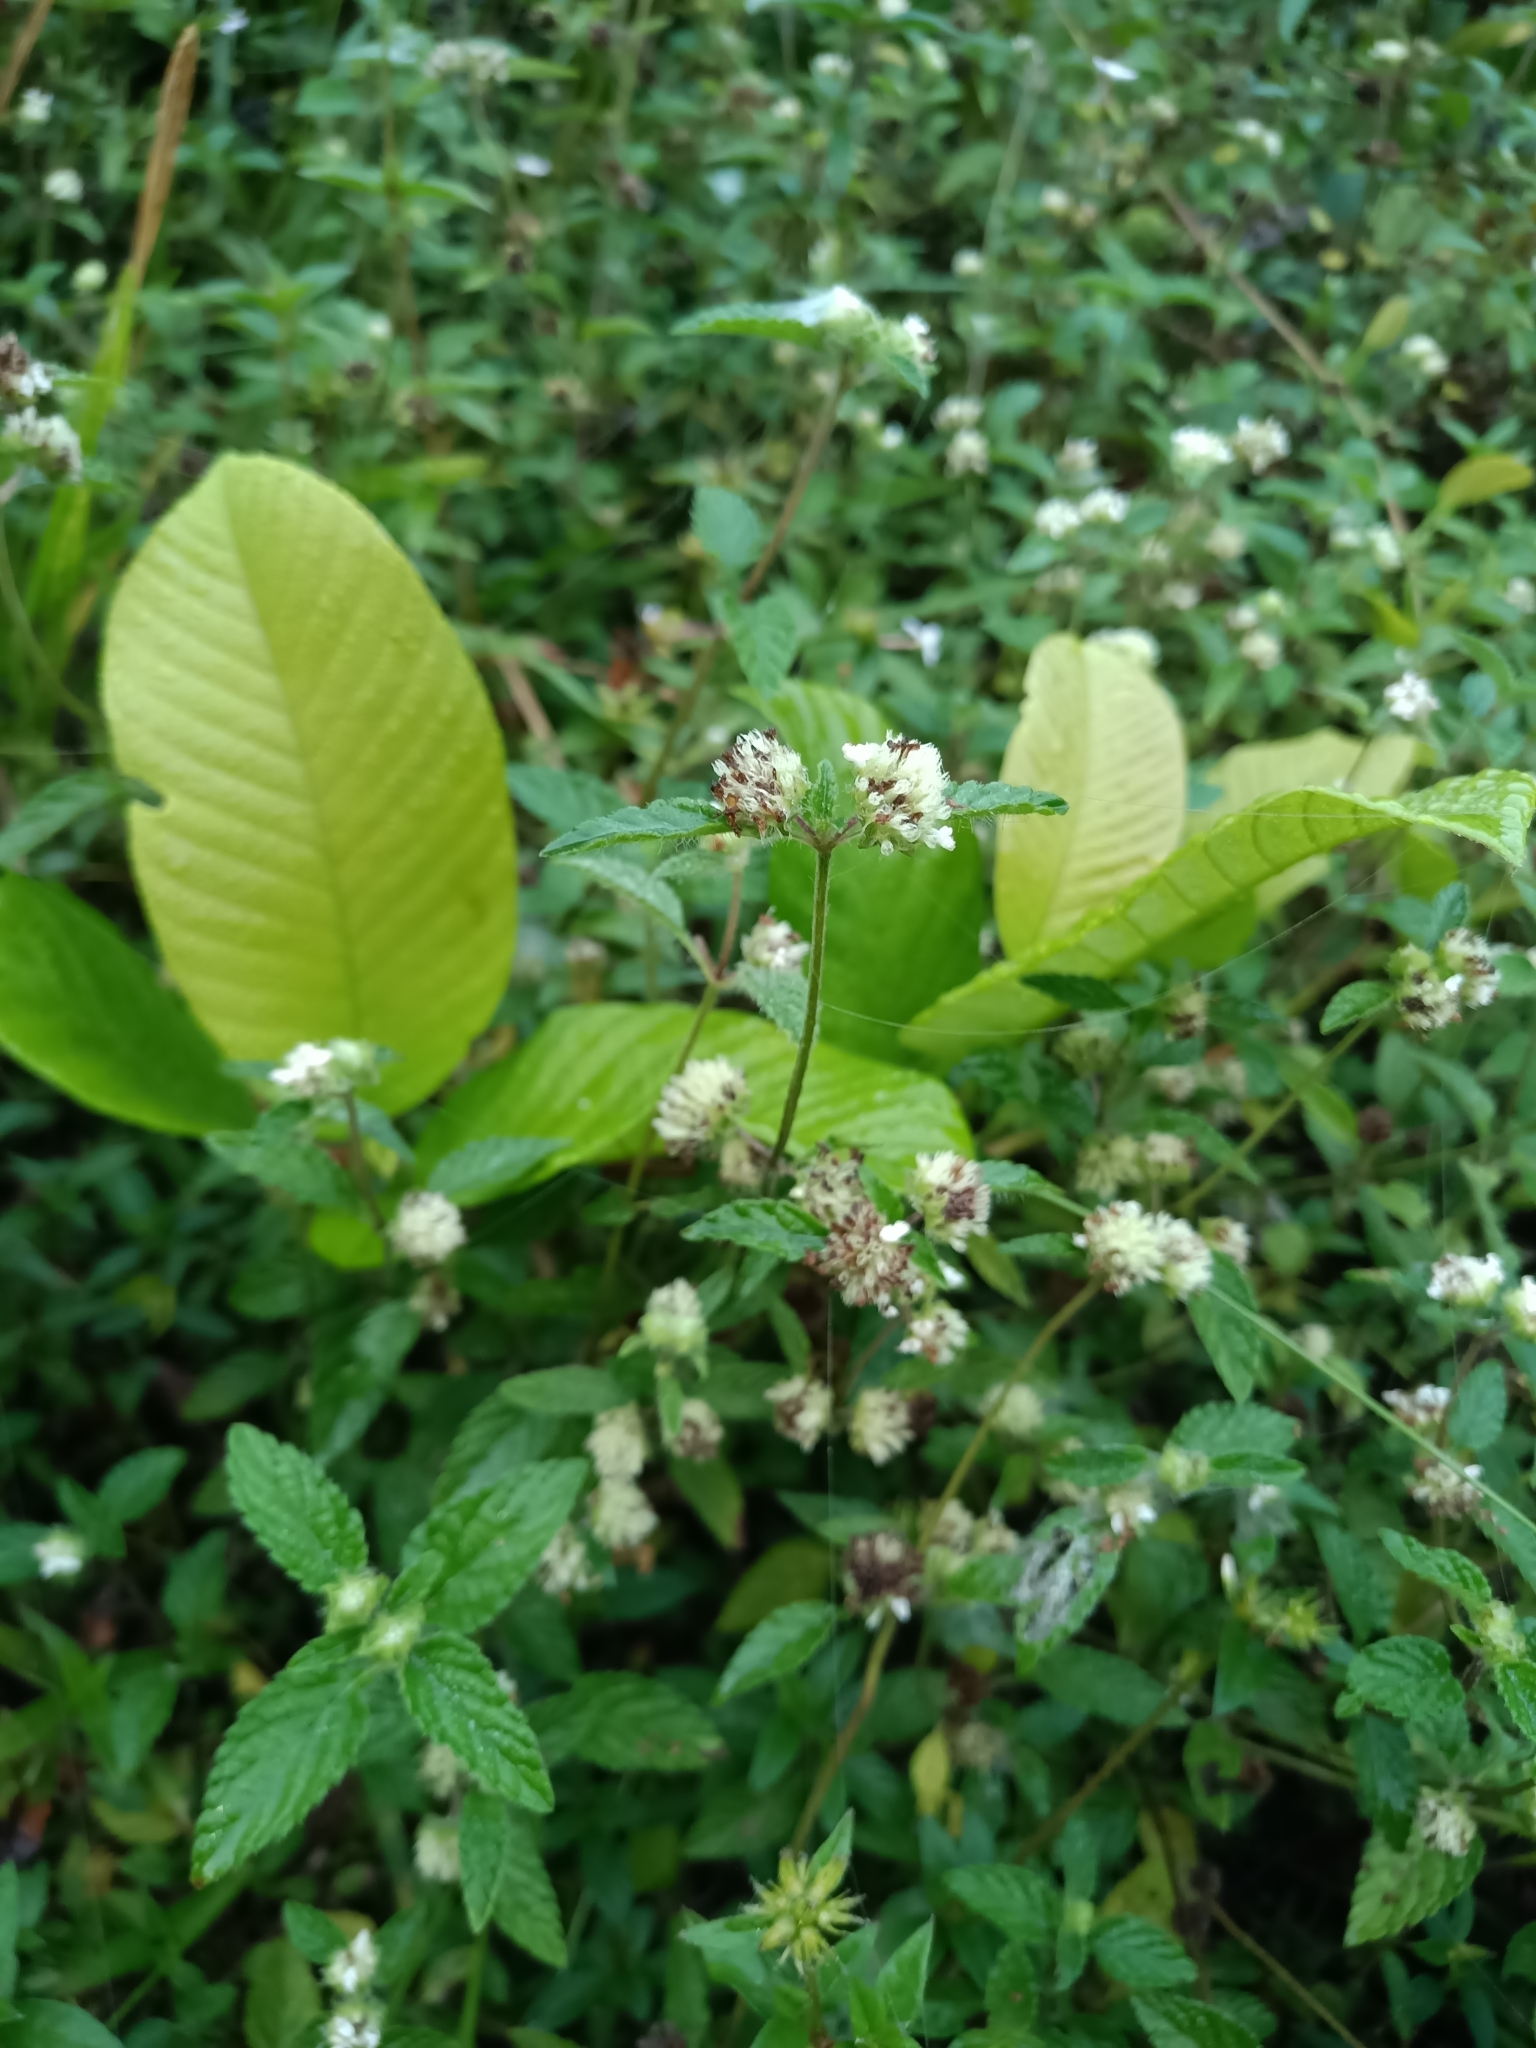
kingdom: Plantae
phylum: Tracheophyta
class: Magnoliopsida
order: Lamiales
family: Lamiaceae
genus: Hyptis
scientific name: Hyptis atrorubens
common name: Lanmant
